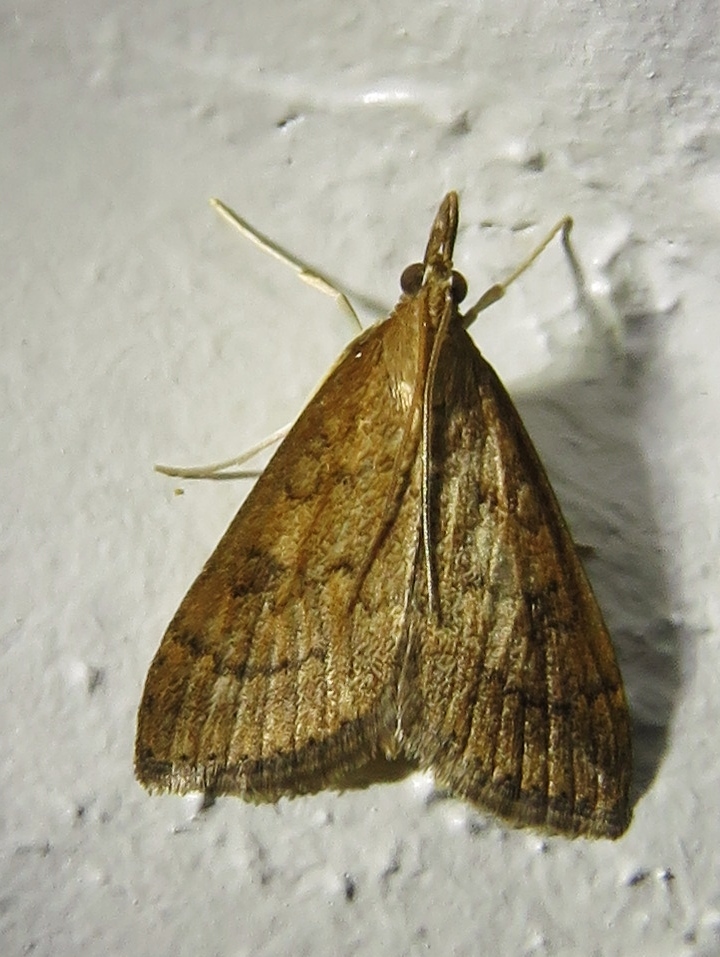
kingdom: Animalia
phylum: Arthropoda
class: Insecta
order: Lepidoptera
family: Crambidae
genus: Udea
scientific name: Udea rubigalis
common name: Celery leaftier moth
